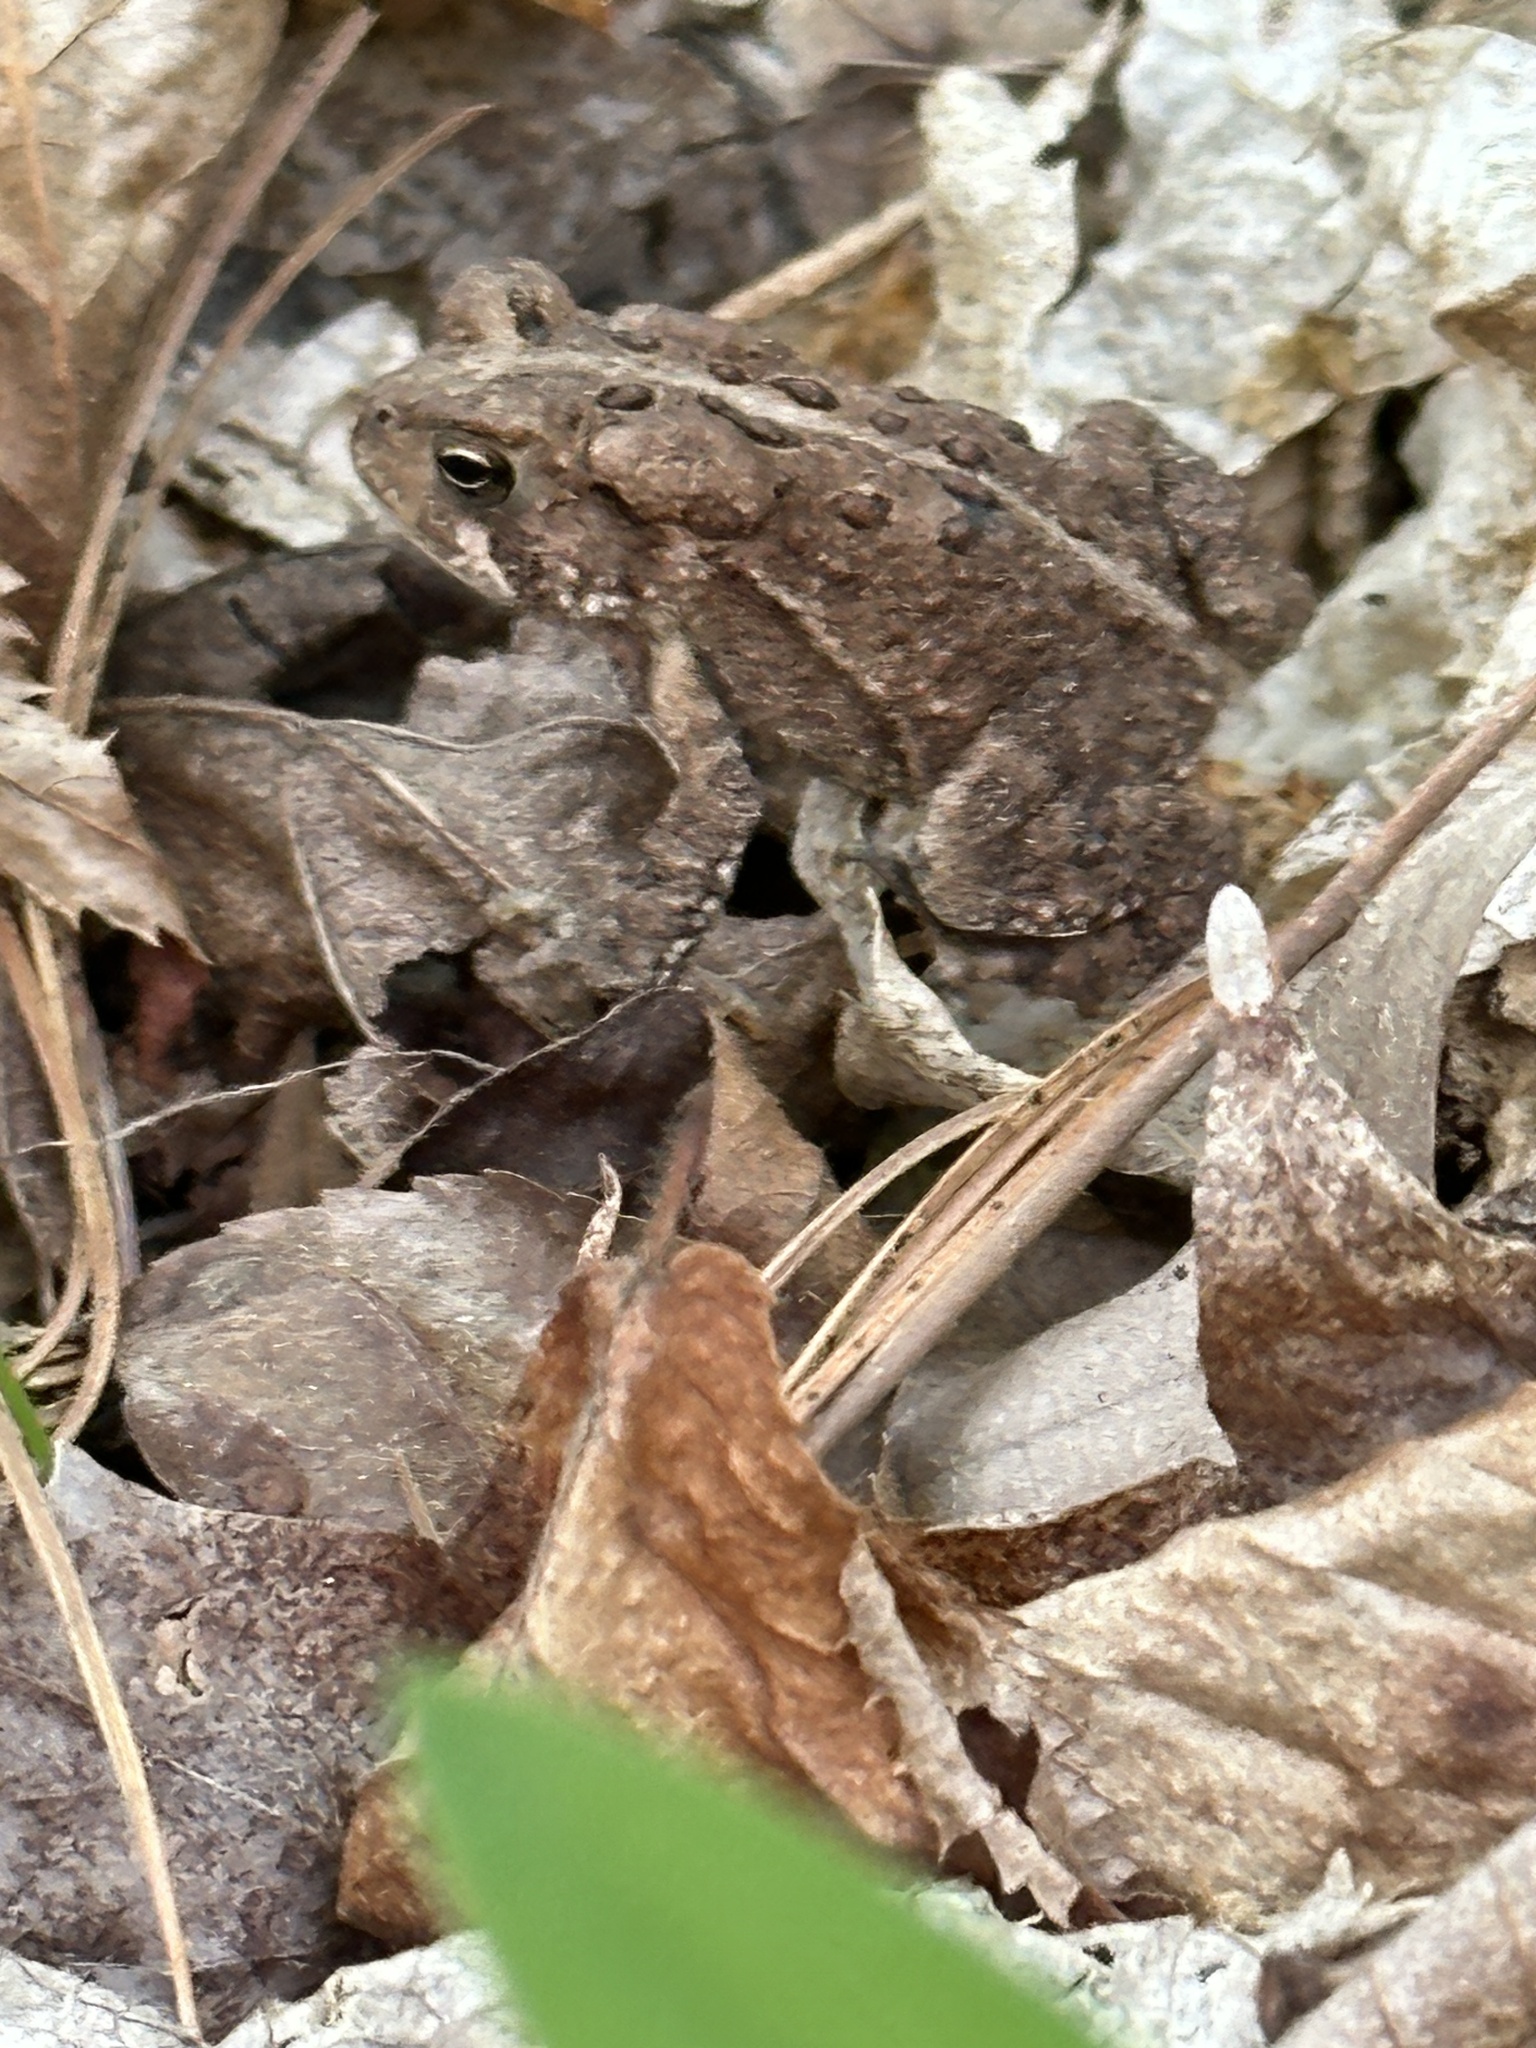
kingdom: Animalia
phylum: Chordata
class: Amphibia
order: Anura
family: Bufonidae
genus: Anaxyrus
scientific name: Anaxyrus americanus
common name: American toad
